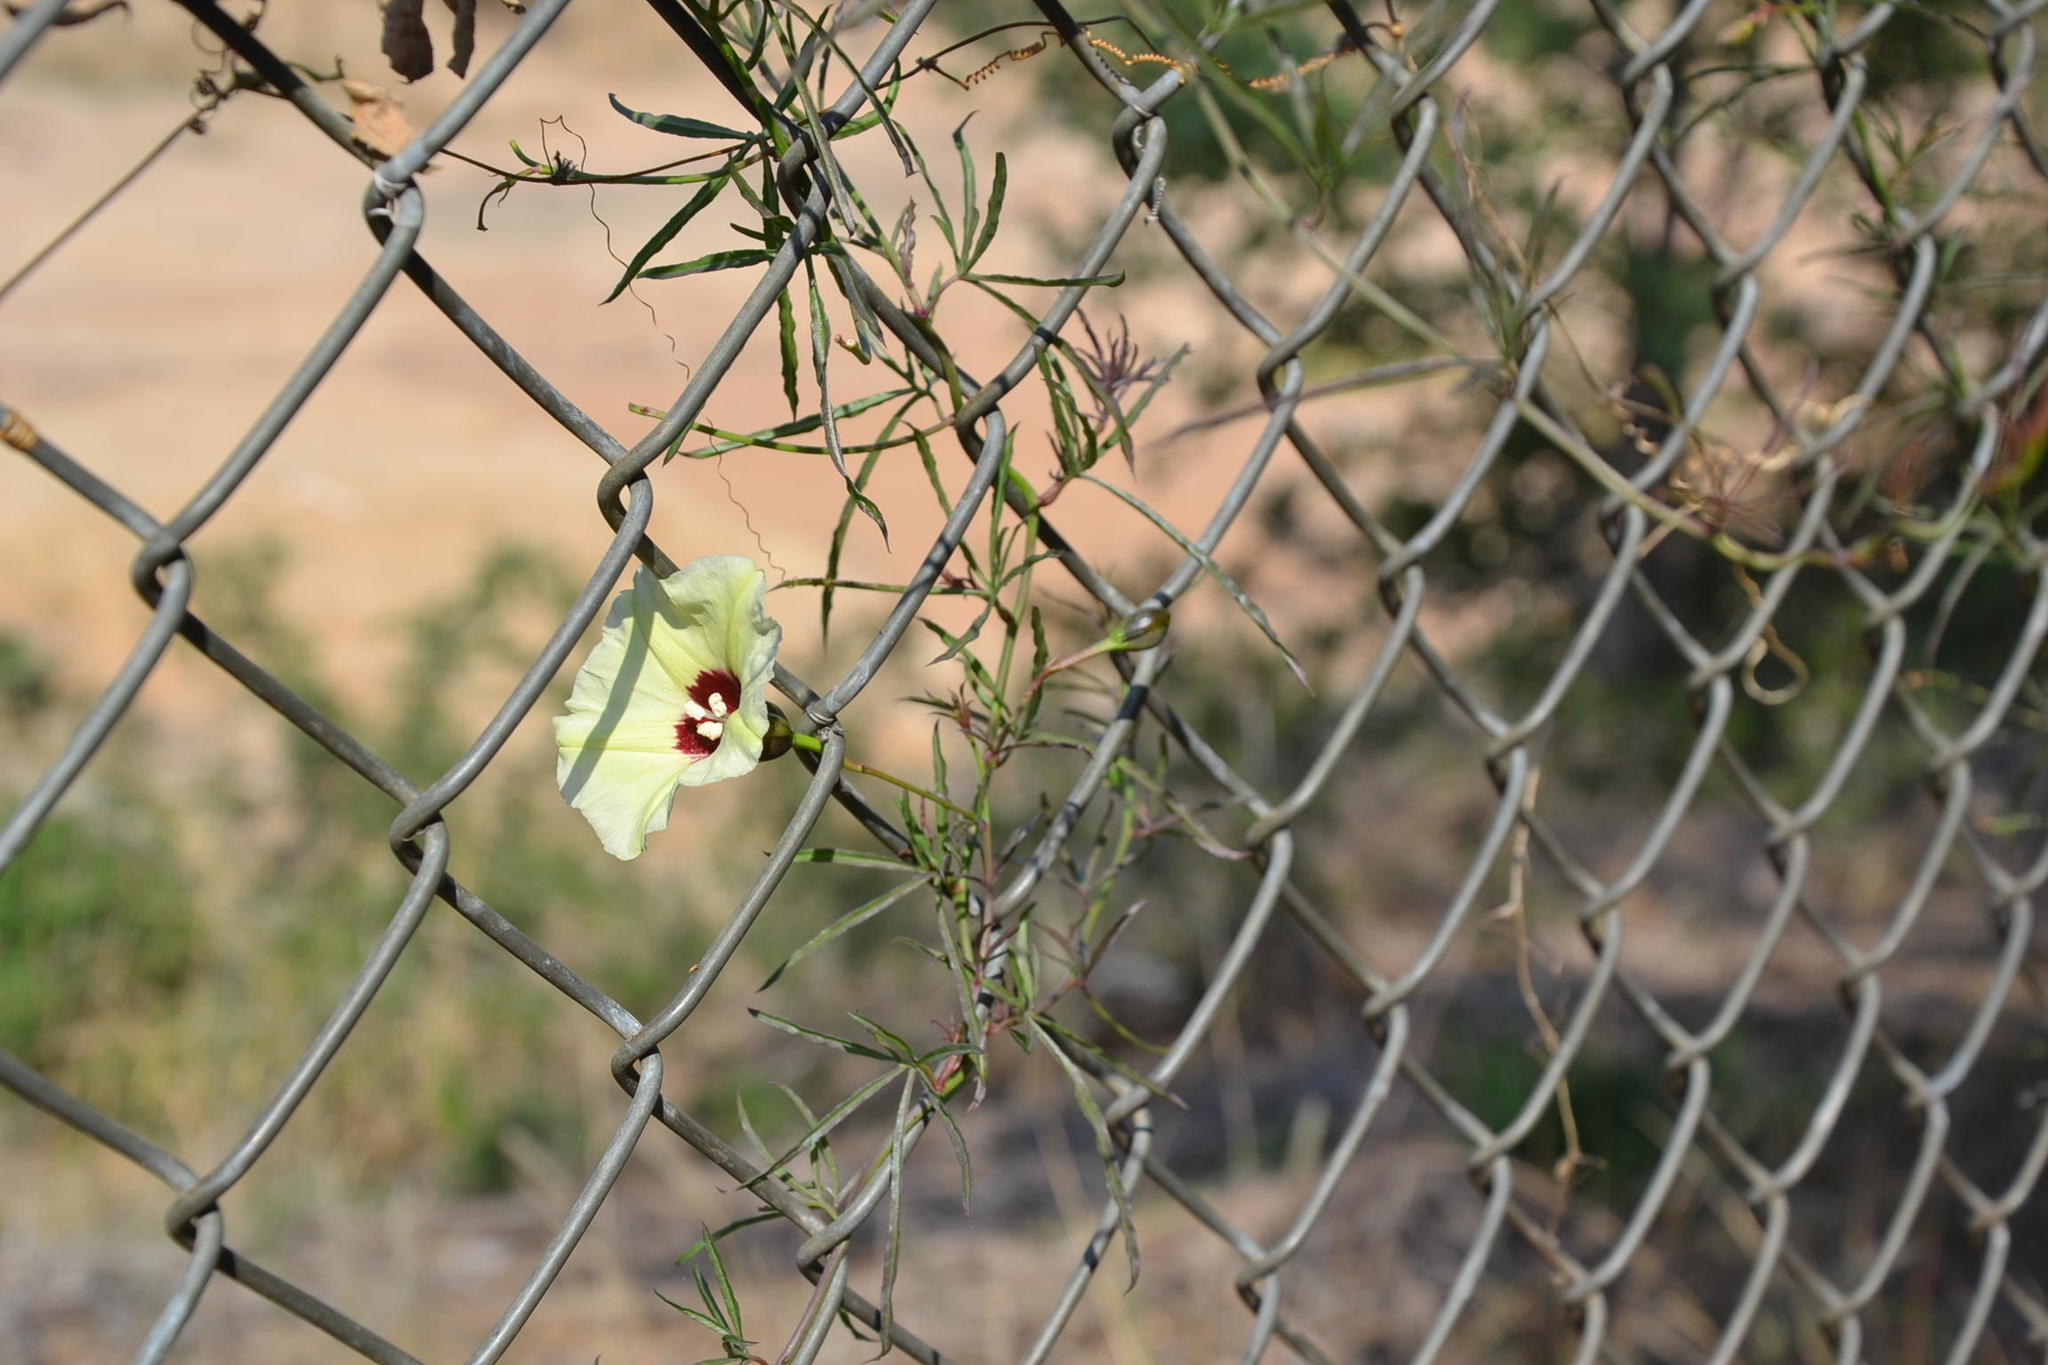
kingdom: Plantae
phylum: Tracheophyta
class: Magnoliopsida
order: Solanales
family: Convolvulaceae
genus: Merremia
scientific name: Merremia palmata
